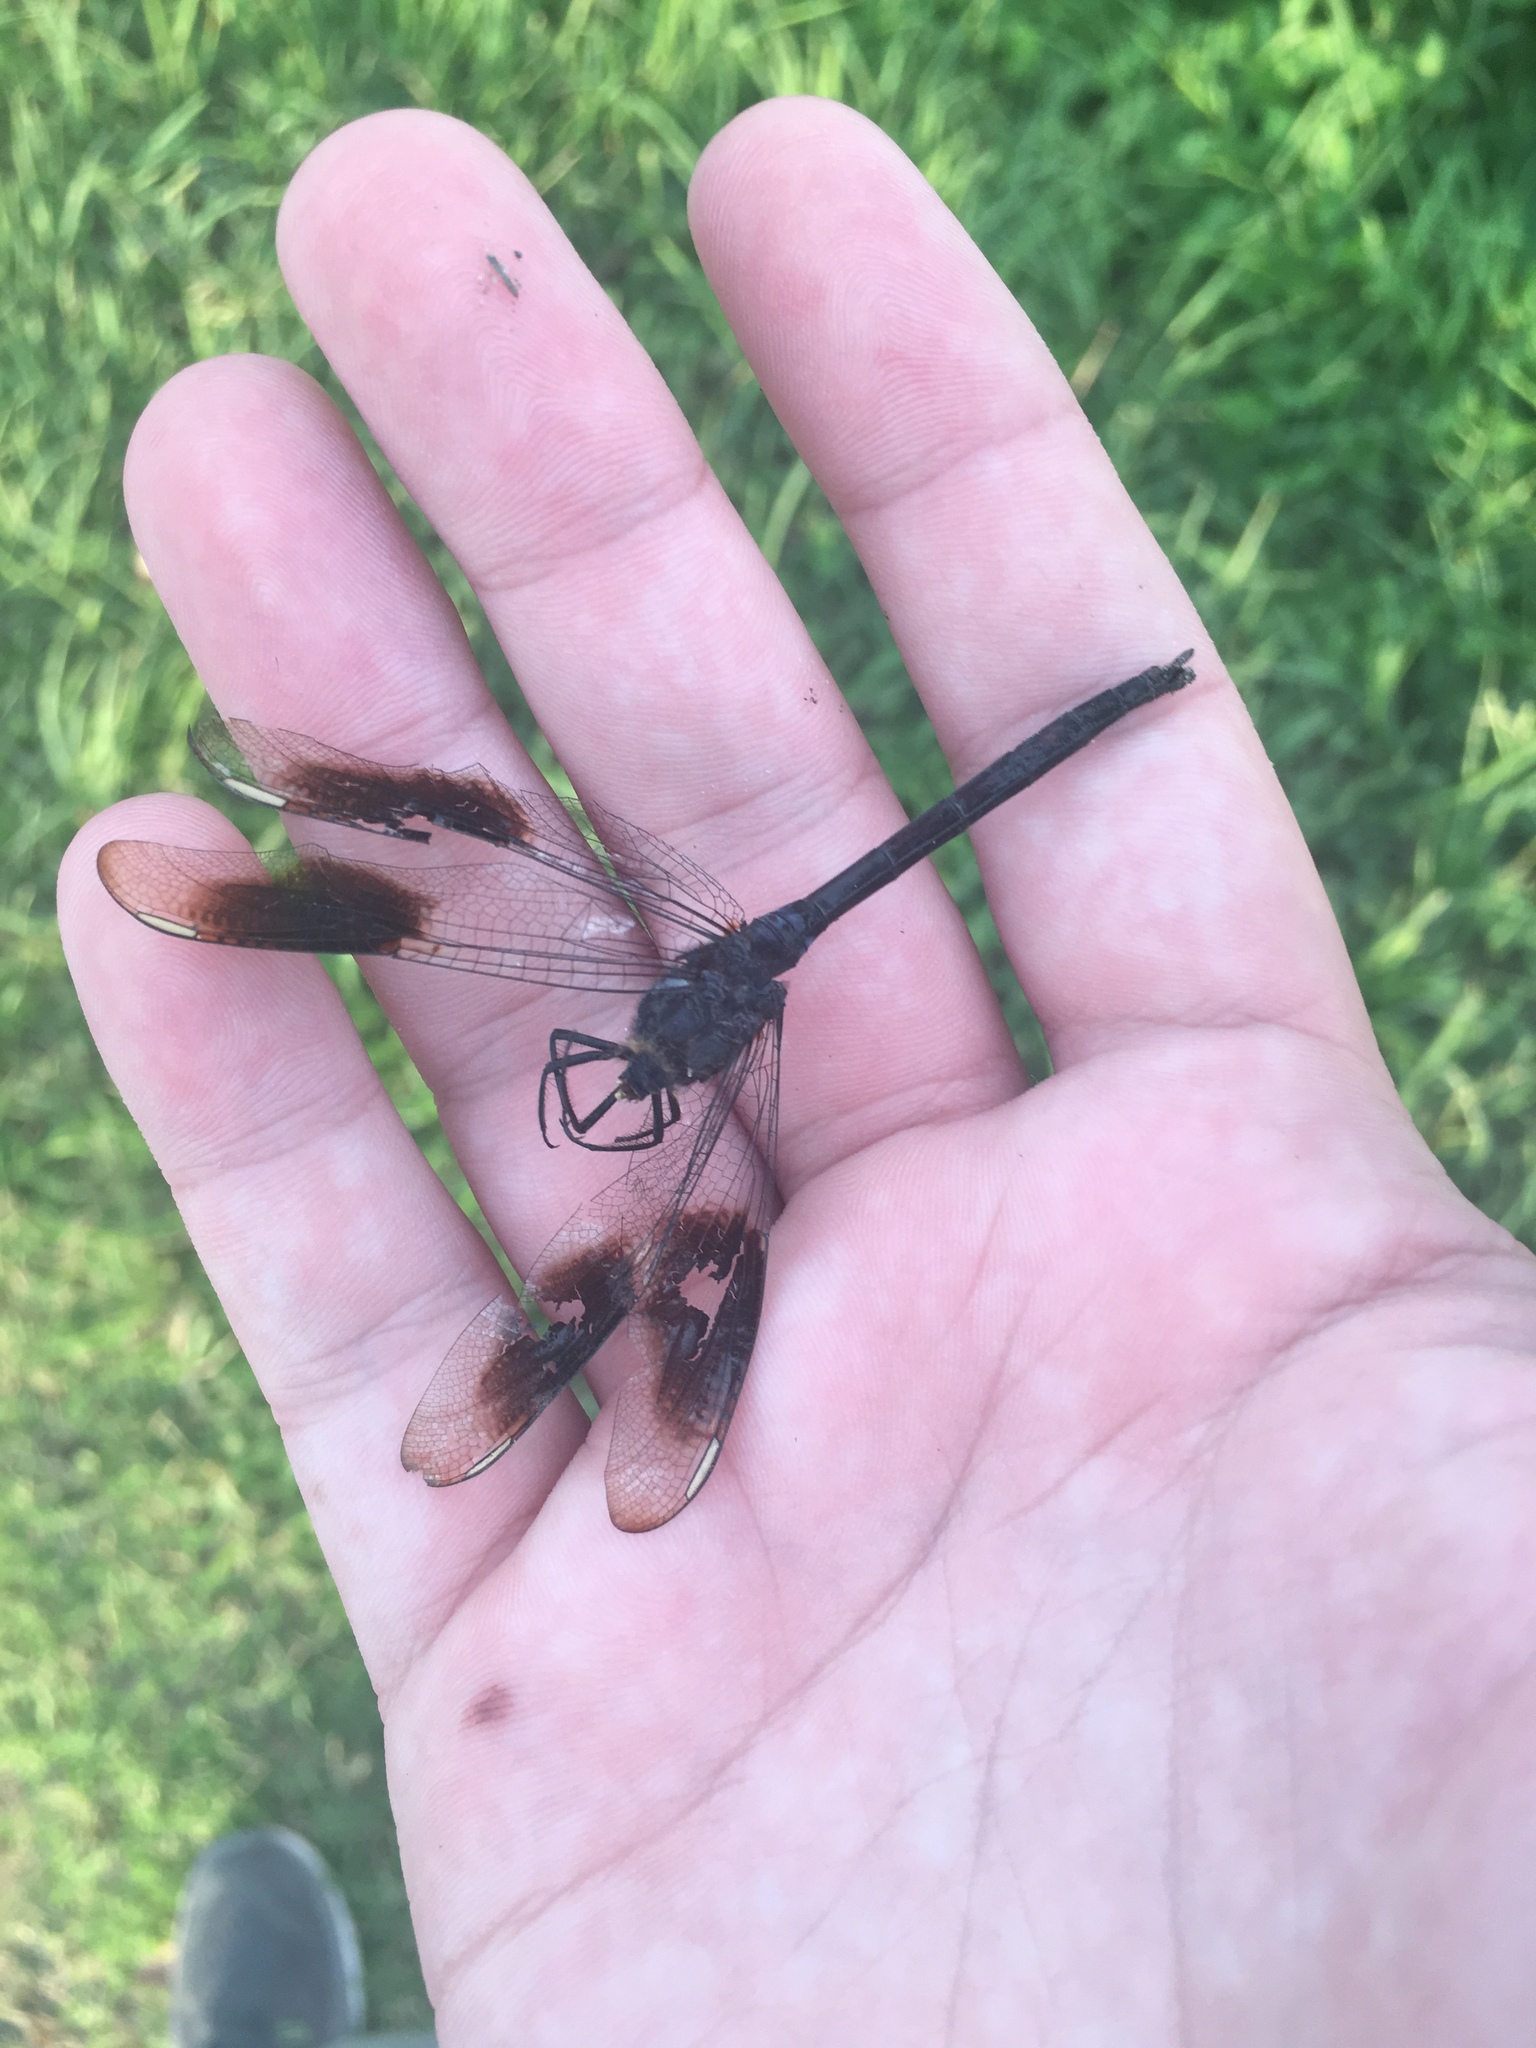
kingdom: Animalia
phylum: Arthropoda
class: Insecta
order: Odonata
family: Libellulidae
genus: Brachymesia
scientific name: Brachymesia gravida
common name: Four-spotted pennant
